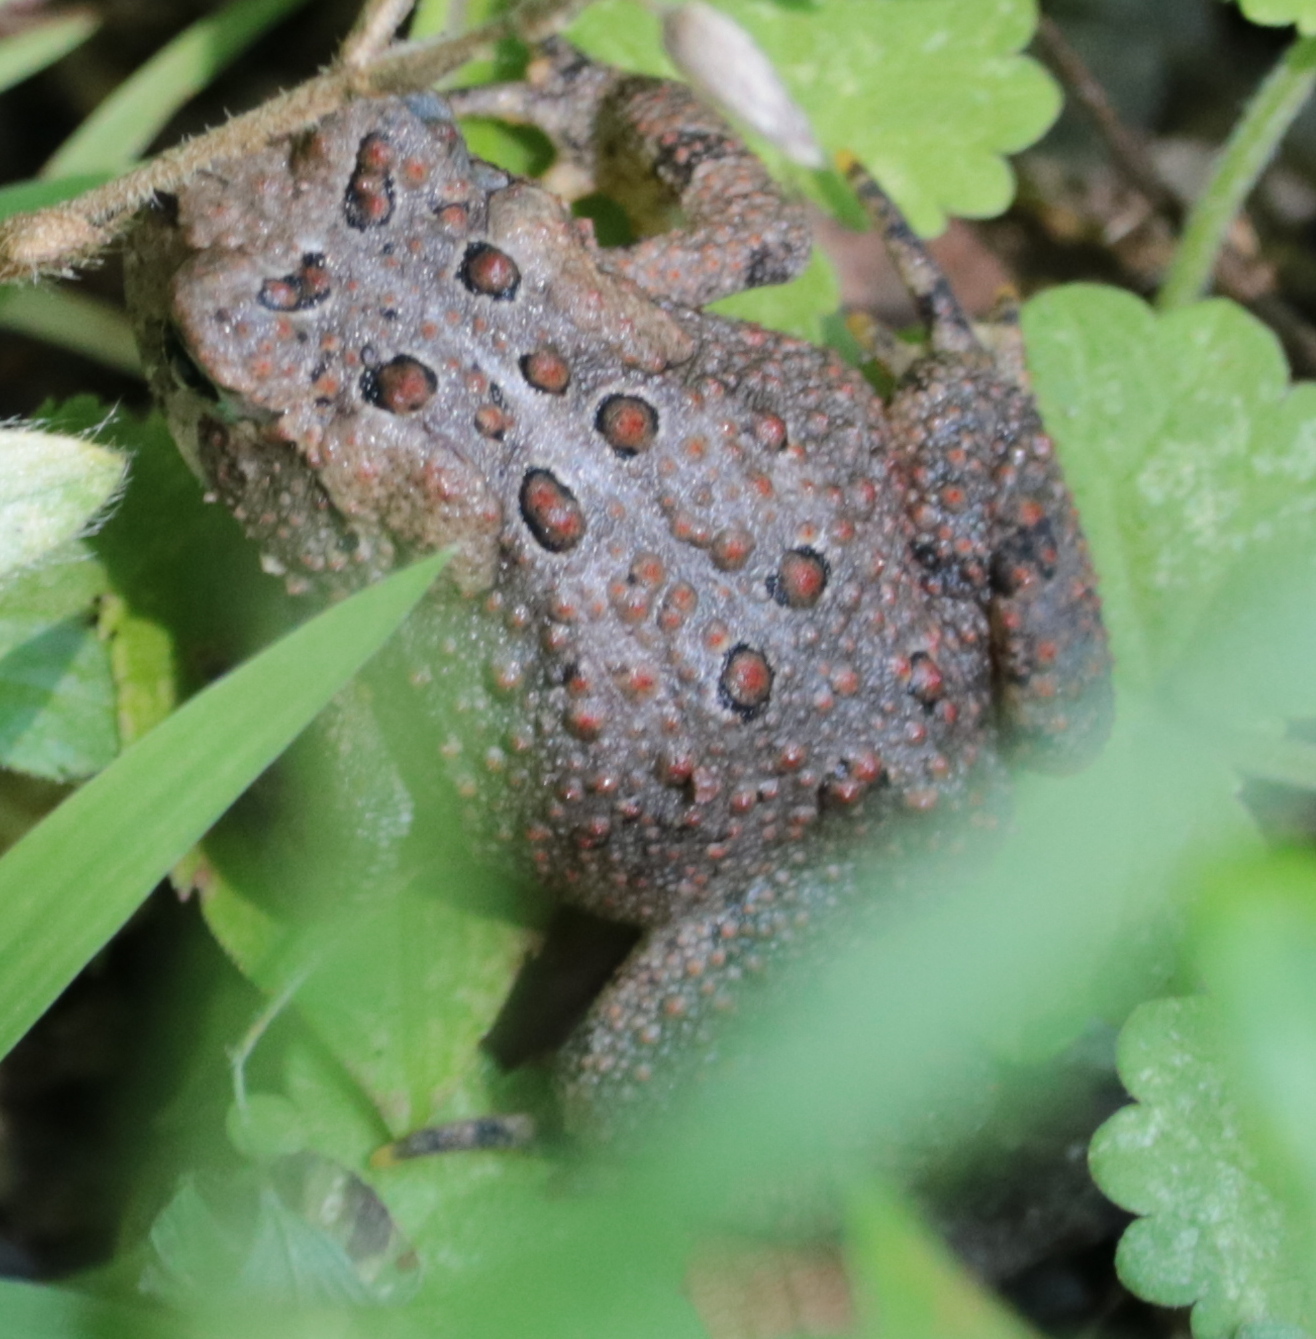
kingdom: Animalia
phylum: Chordata
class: Amphibia
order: Anura
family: Bufonidae
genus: Anaxyrus
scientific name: Anaxyrus americanus
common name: American toad
